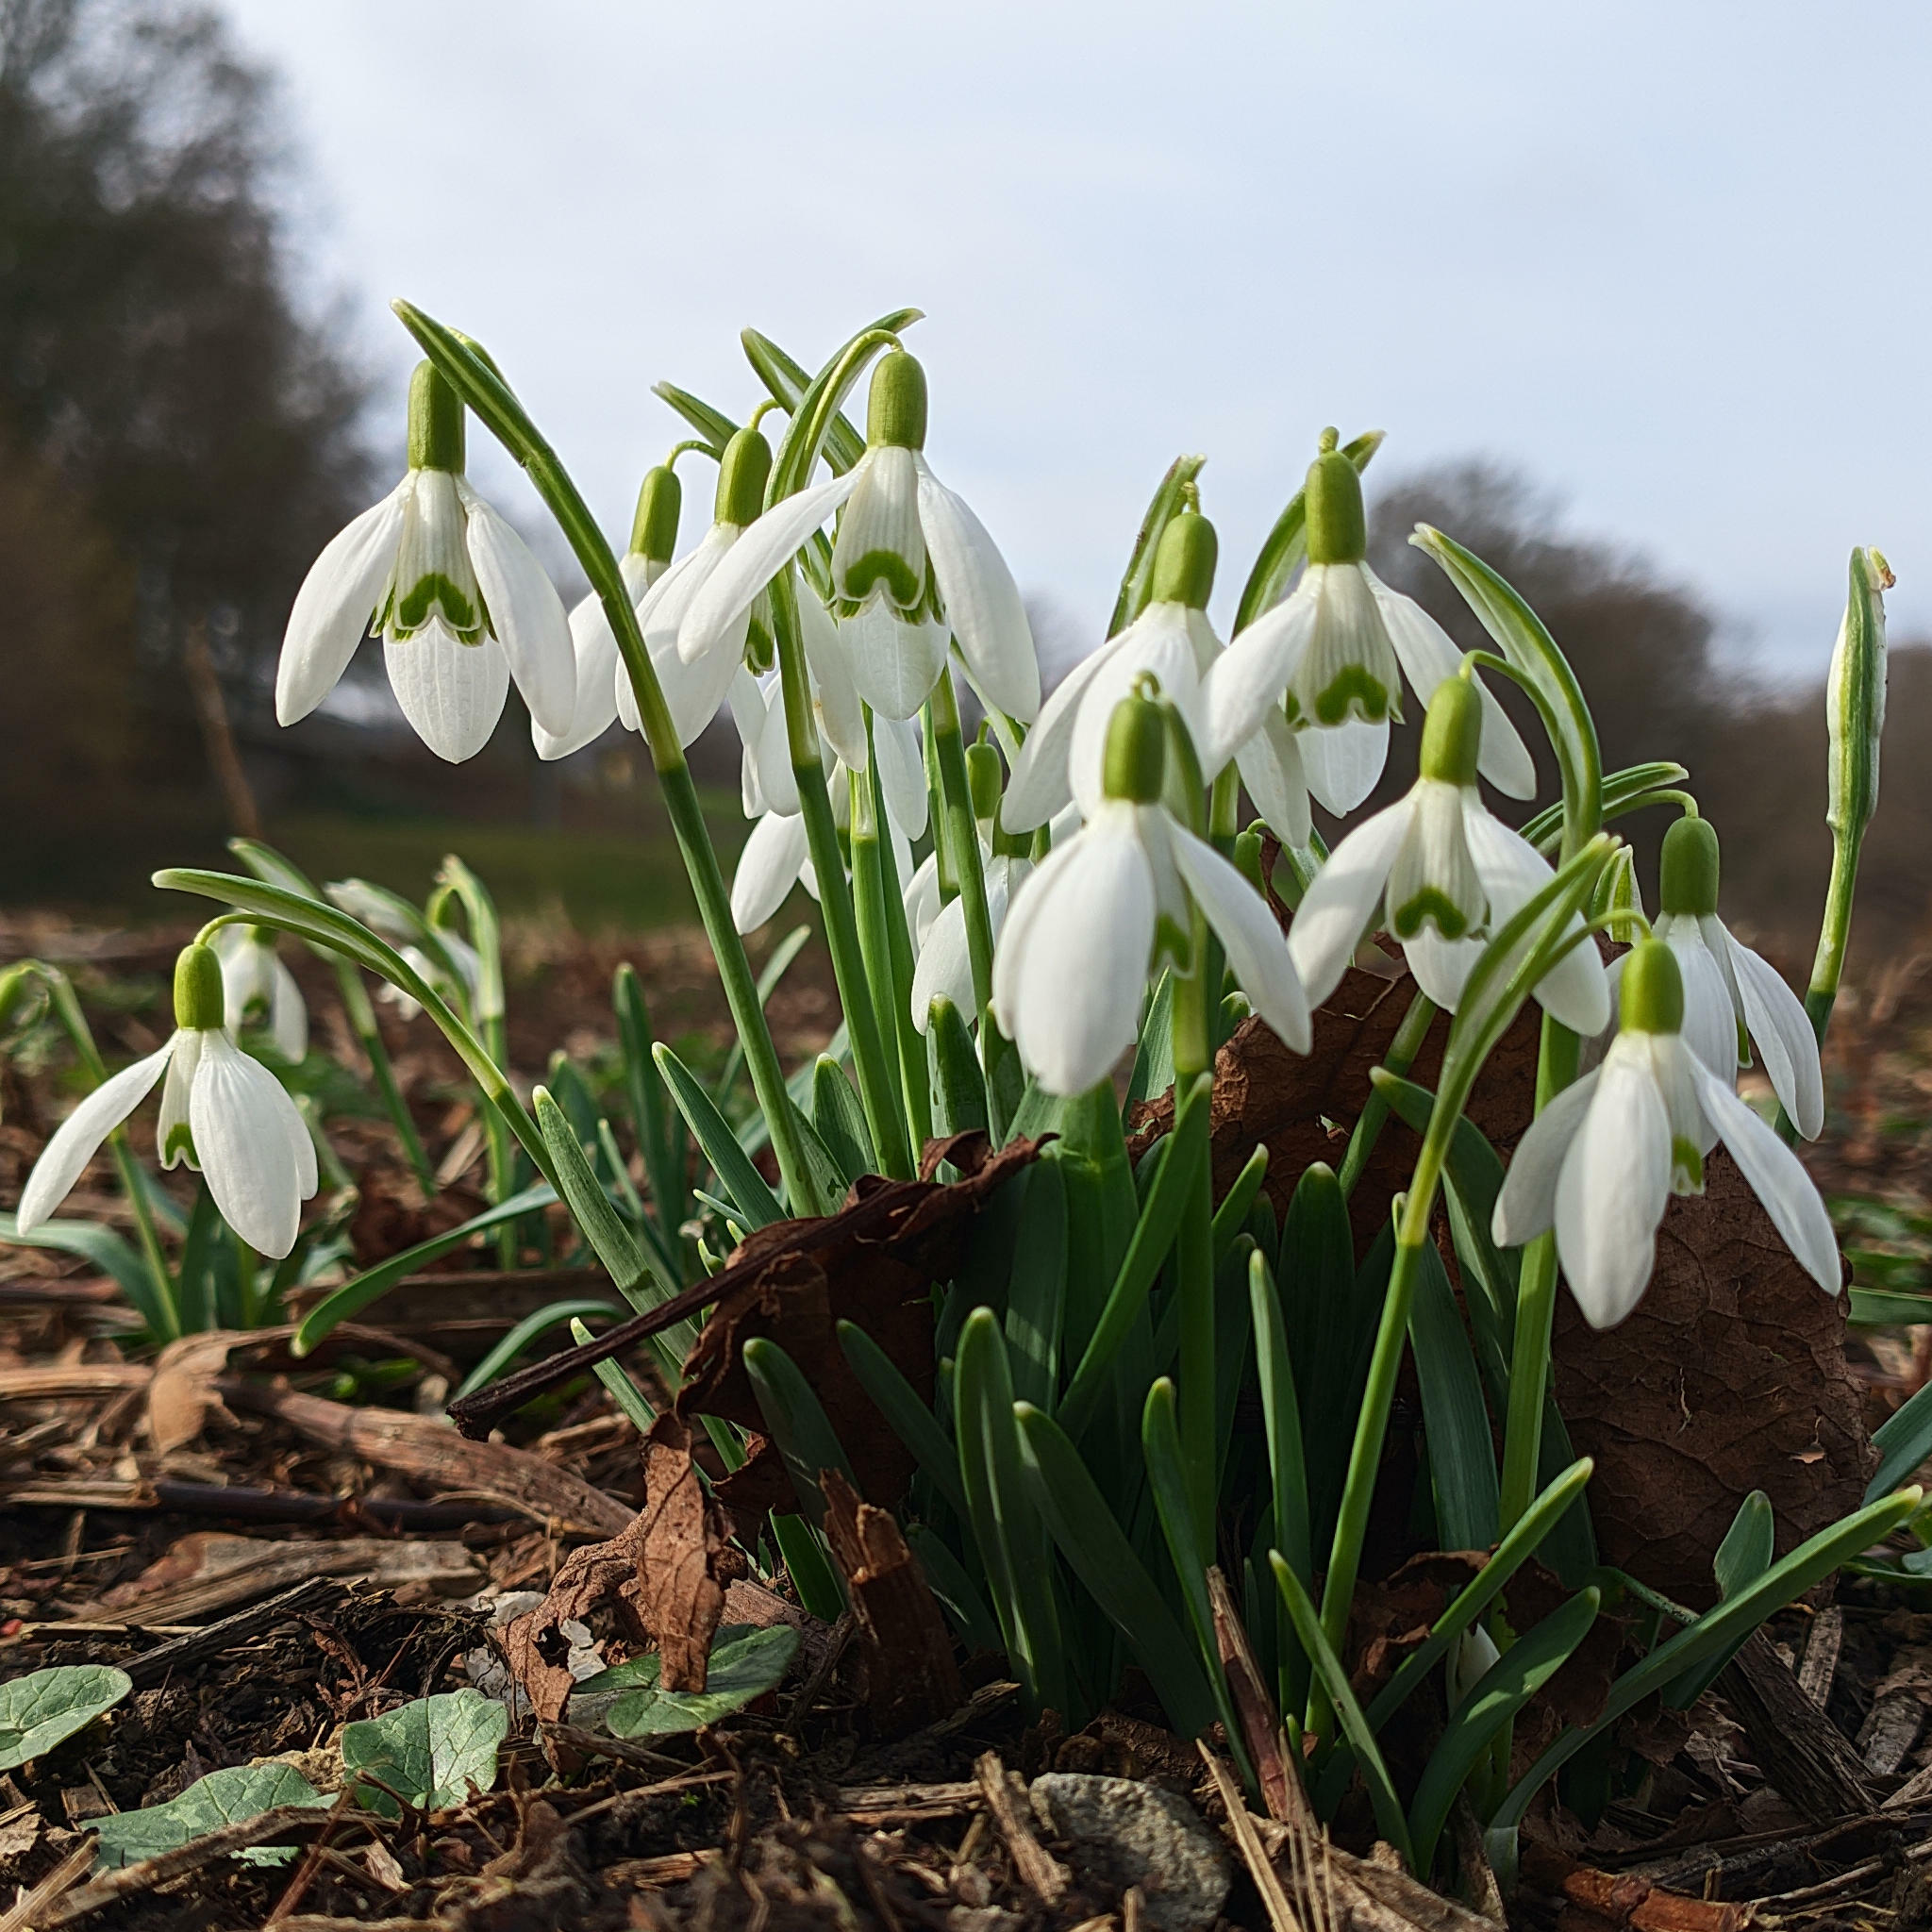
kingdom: Plantae
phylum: Tracheophyta
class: Liliopsida
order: Asparagales
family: Amaryllidaceae
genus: Galanthus
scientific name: Galanthus nivalis
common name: Snowdrop
